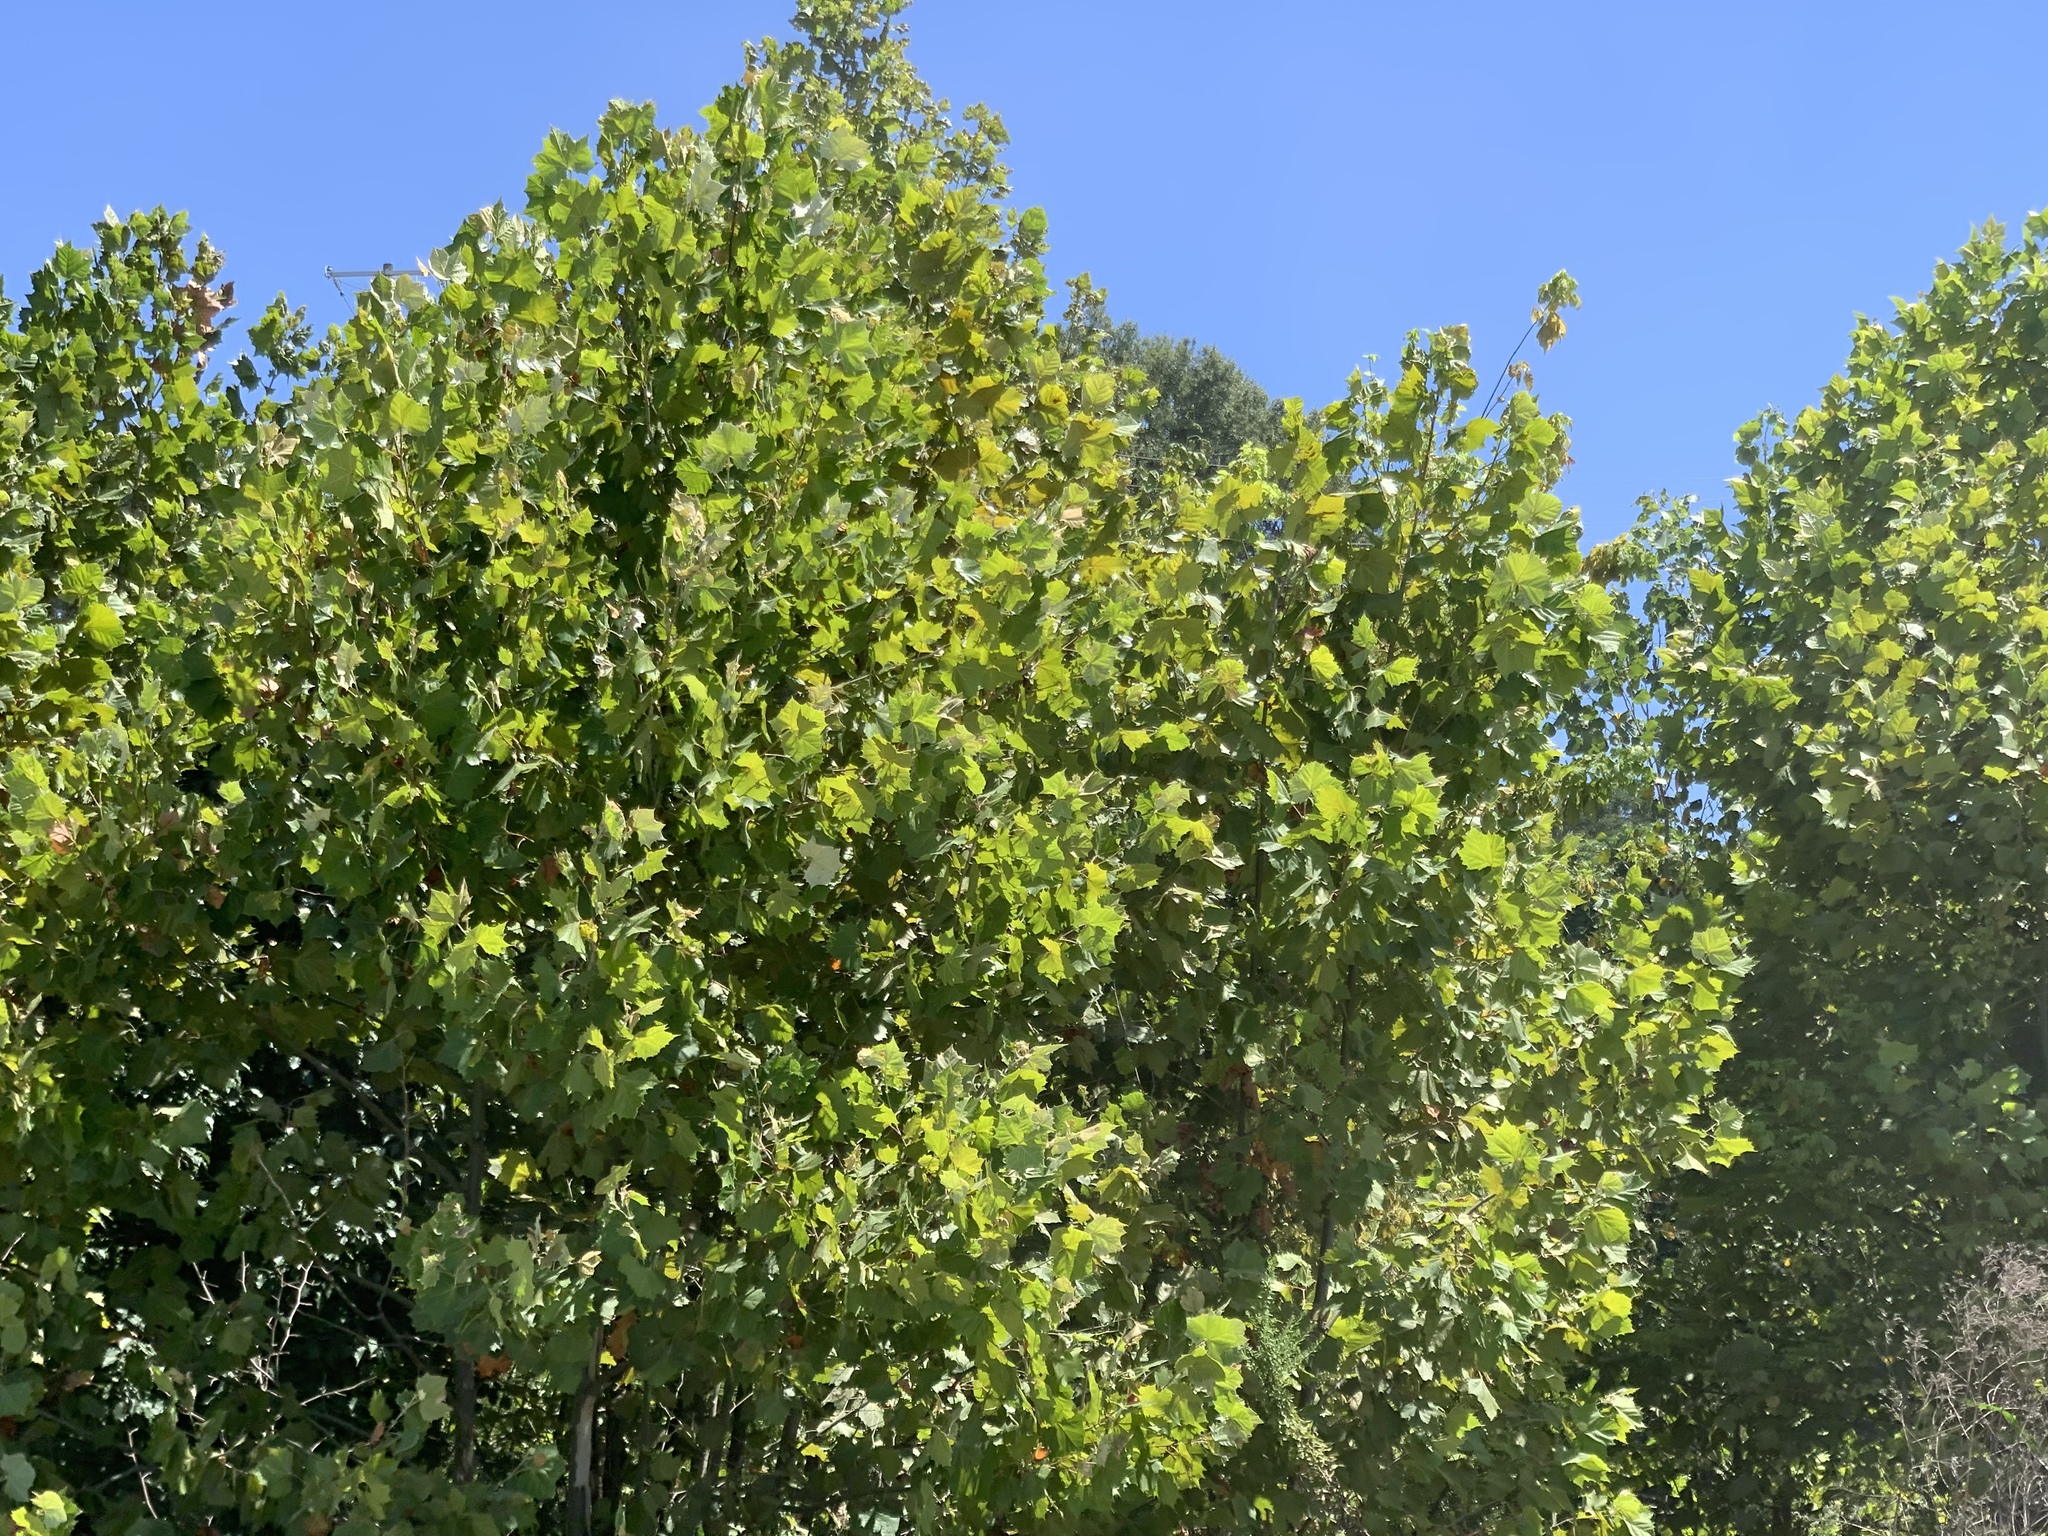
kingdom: Plantae
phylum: Tracheophyta
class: Magnoliopsida
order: Proteales
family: Platanaceae
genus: Platanus
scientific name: Platanus occidentalis
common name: American sycamore
